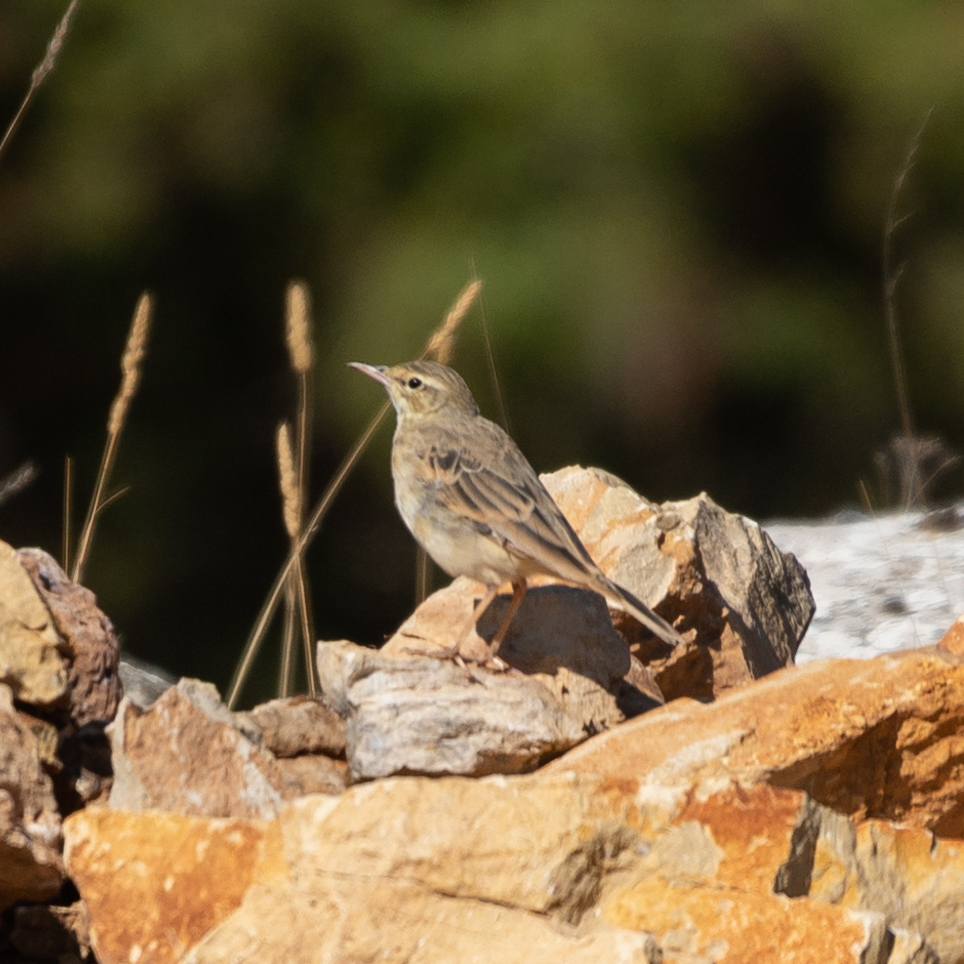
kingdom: Animalia
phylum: Chordata
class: Aves
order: Passeriformes
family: Motacillidae
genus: Anthus
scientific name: Anthus campestris
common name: Tawny pipit
